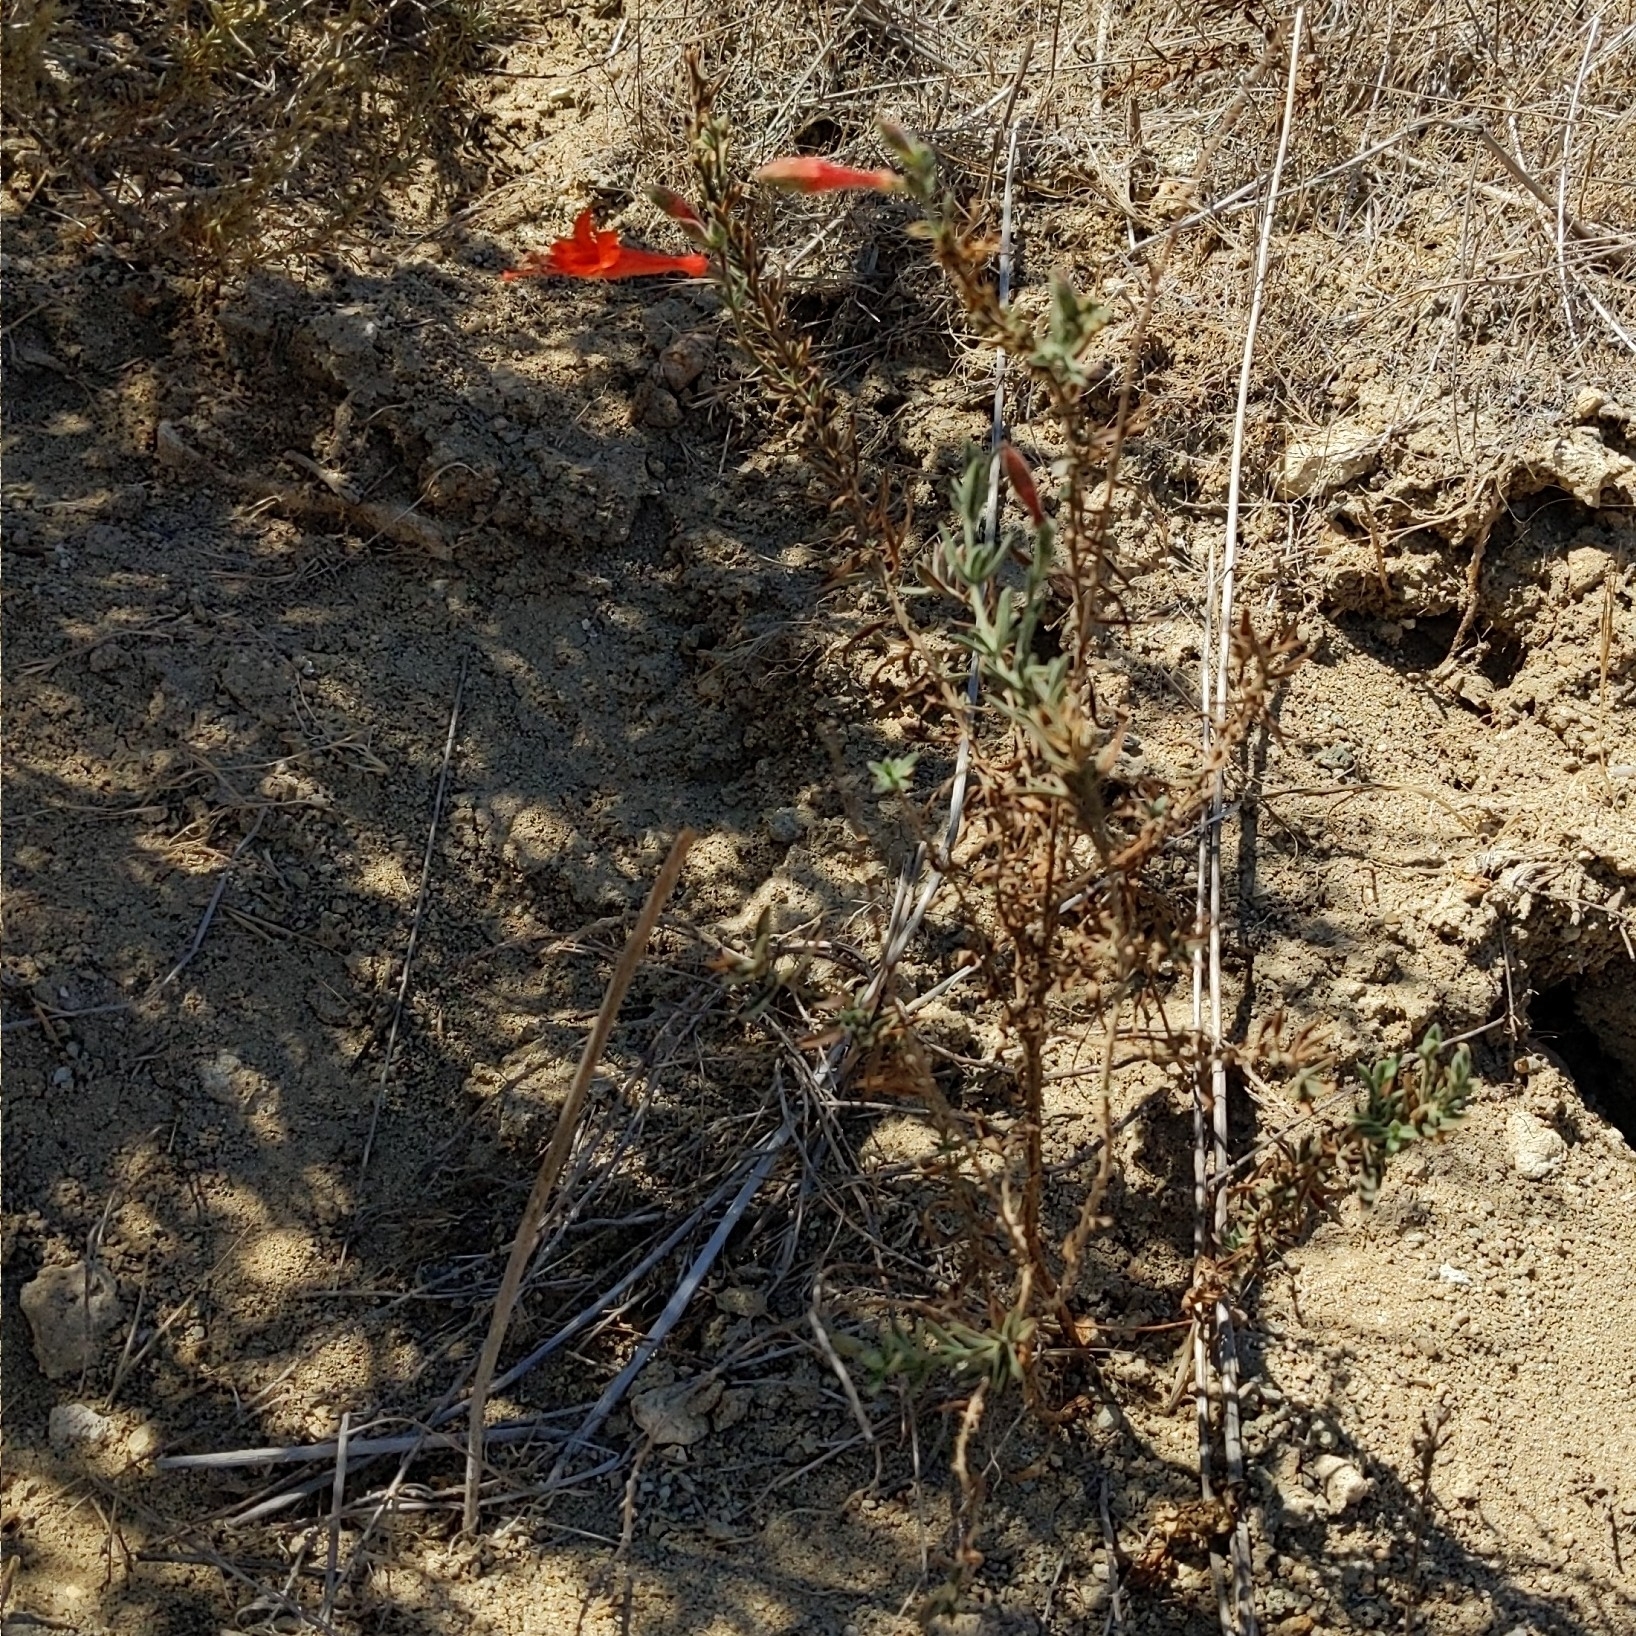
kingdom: Plantae
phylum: Tracheophyta
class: Magnoliopsida
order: Myrtales
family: Onagraceae
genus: Epilobium
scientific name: Epilobium canum
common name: California-fuchsia
